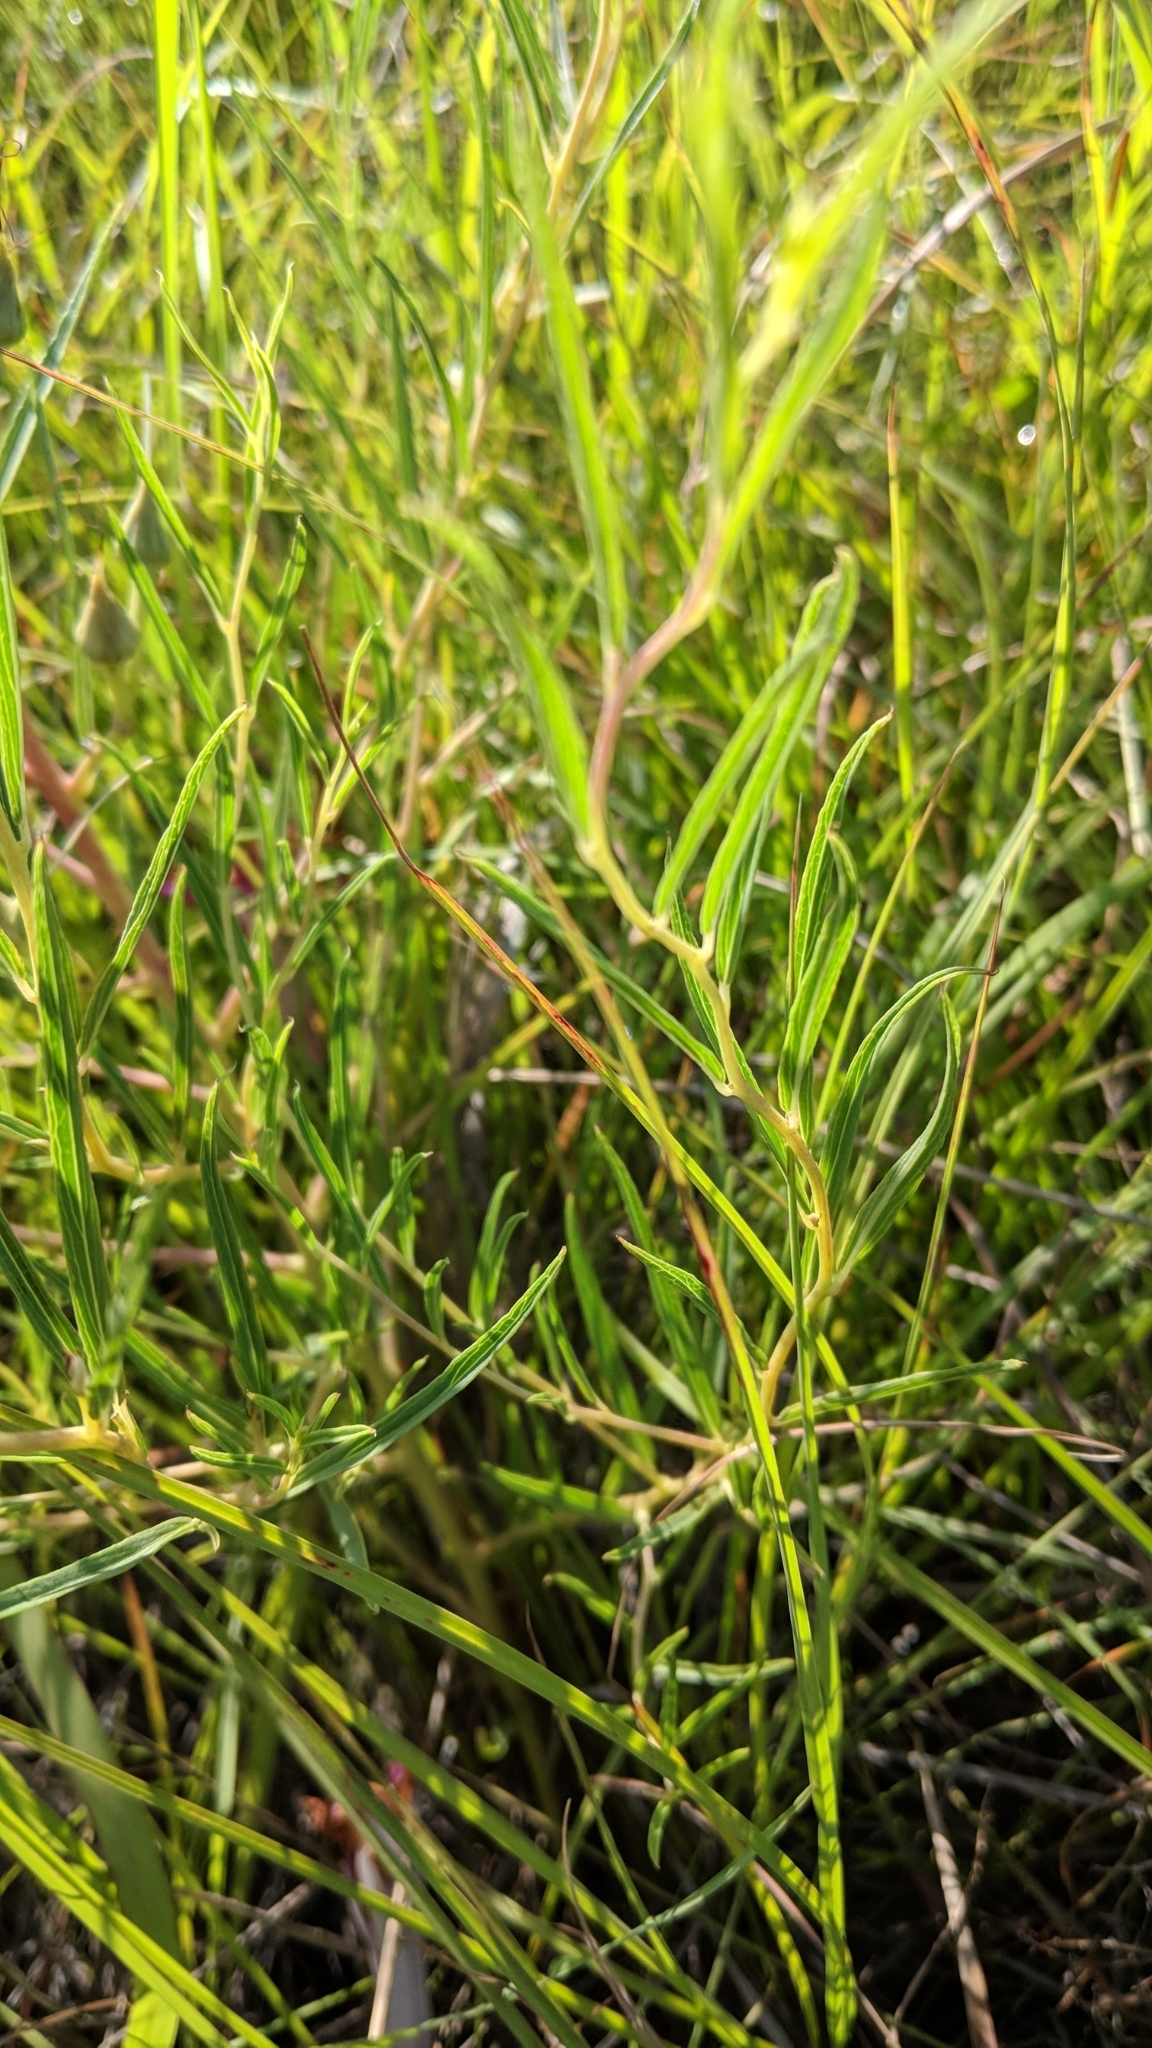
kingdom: Plantae
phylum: Tracheophyta
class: Magnoliopsida
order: Solanales
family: Convolvulaceae
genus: Ipomoea
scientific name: Ipomoea leptophylla
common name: Bush moonflower
